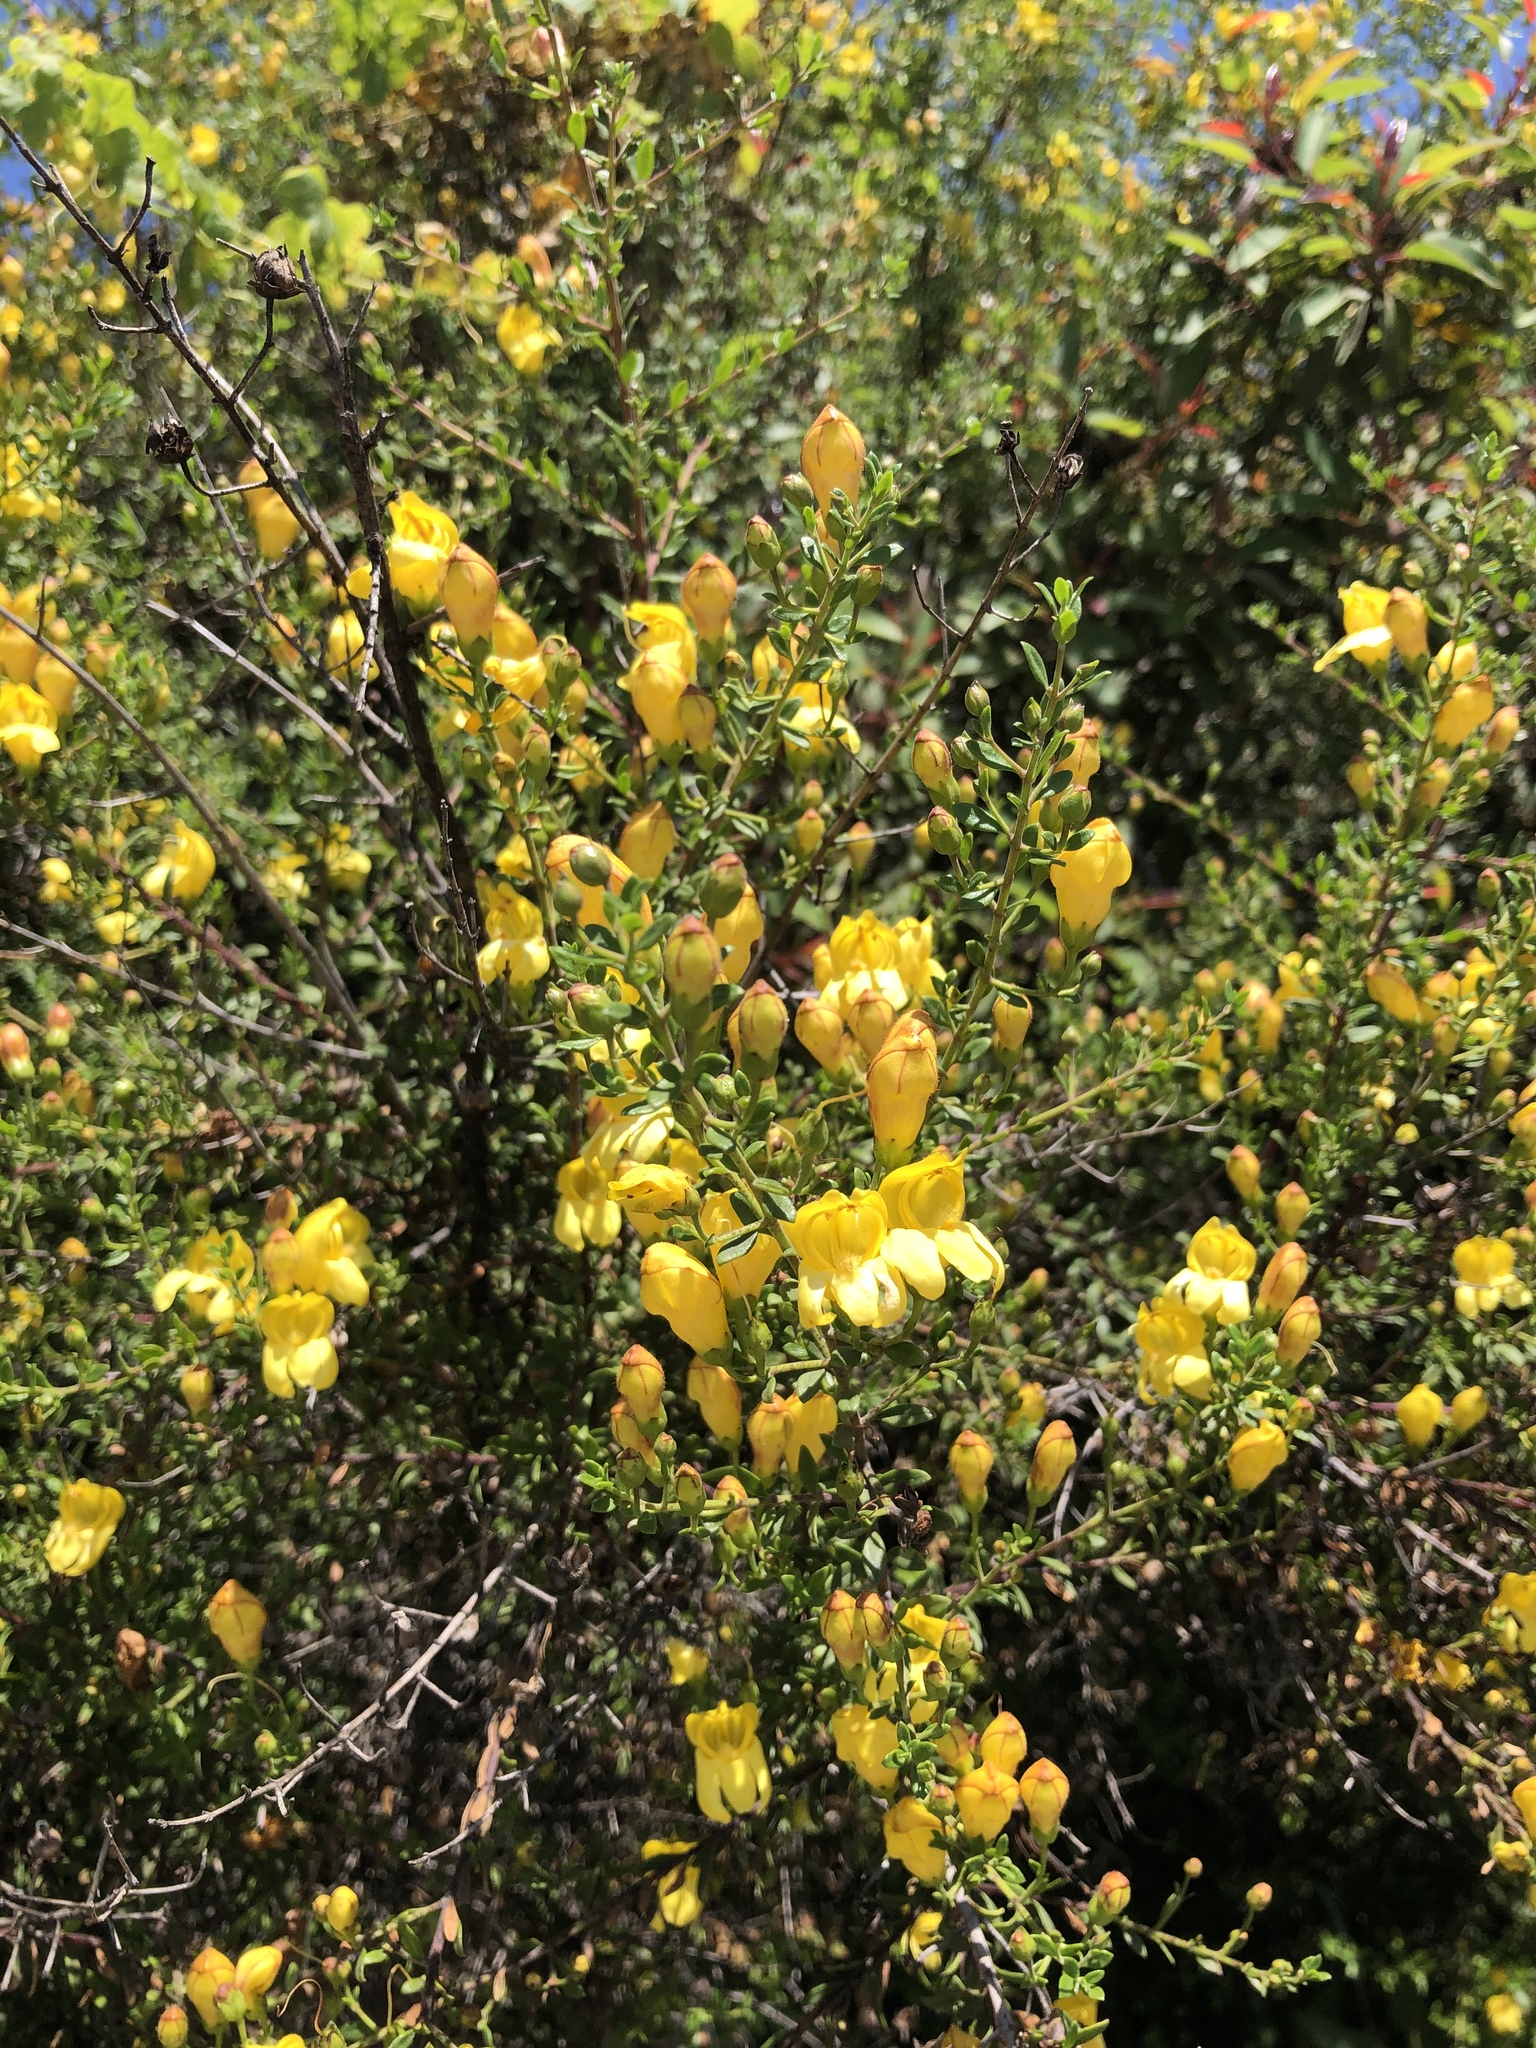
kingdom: Plantae
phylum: Tracheophyta
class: Magnoliopsida
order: Lamiales
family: Plantaginaceae
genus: Keckiella
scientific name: Keckiella antirrhinoides
